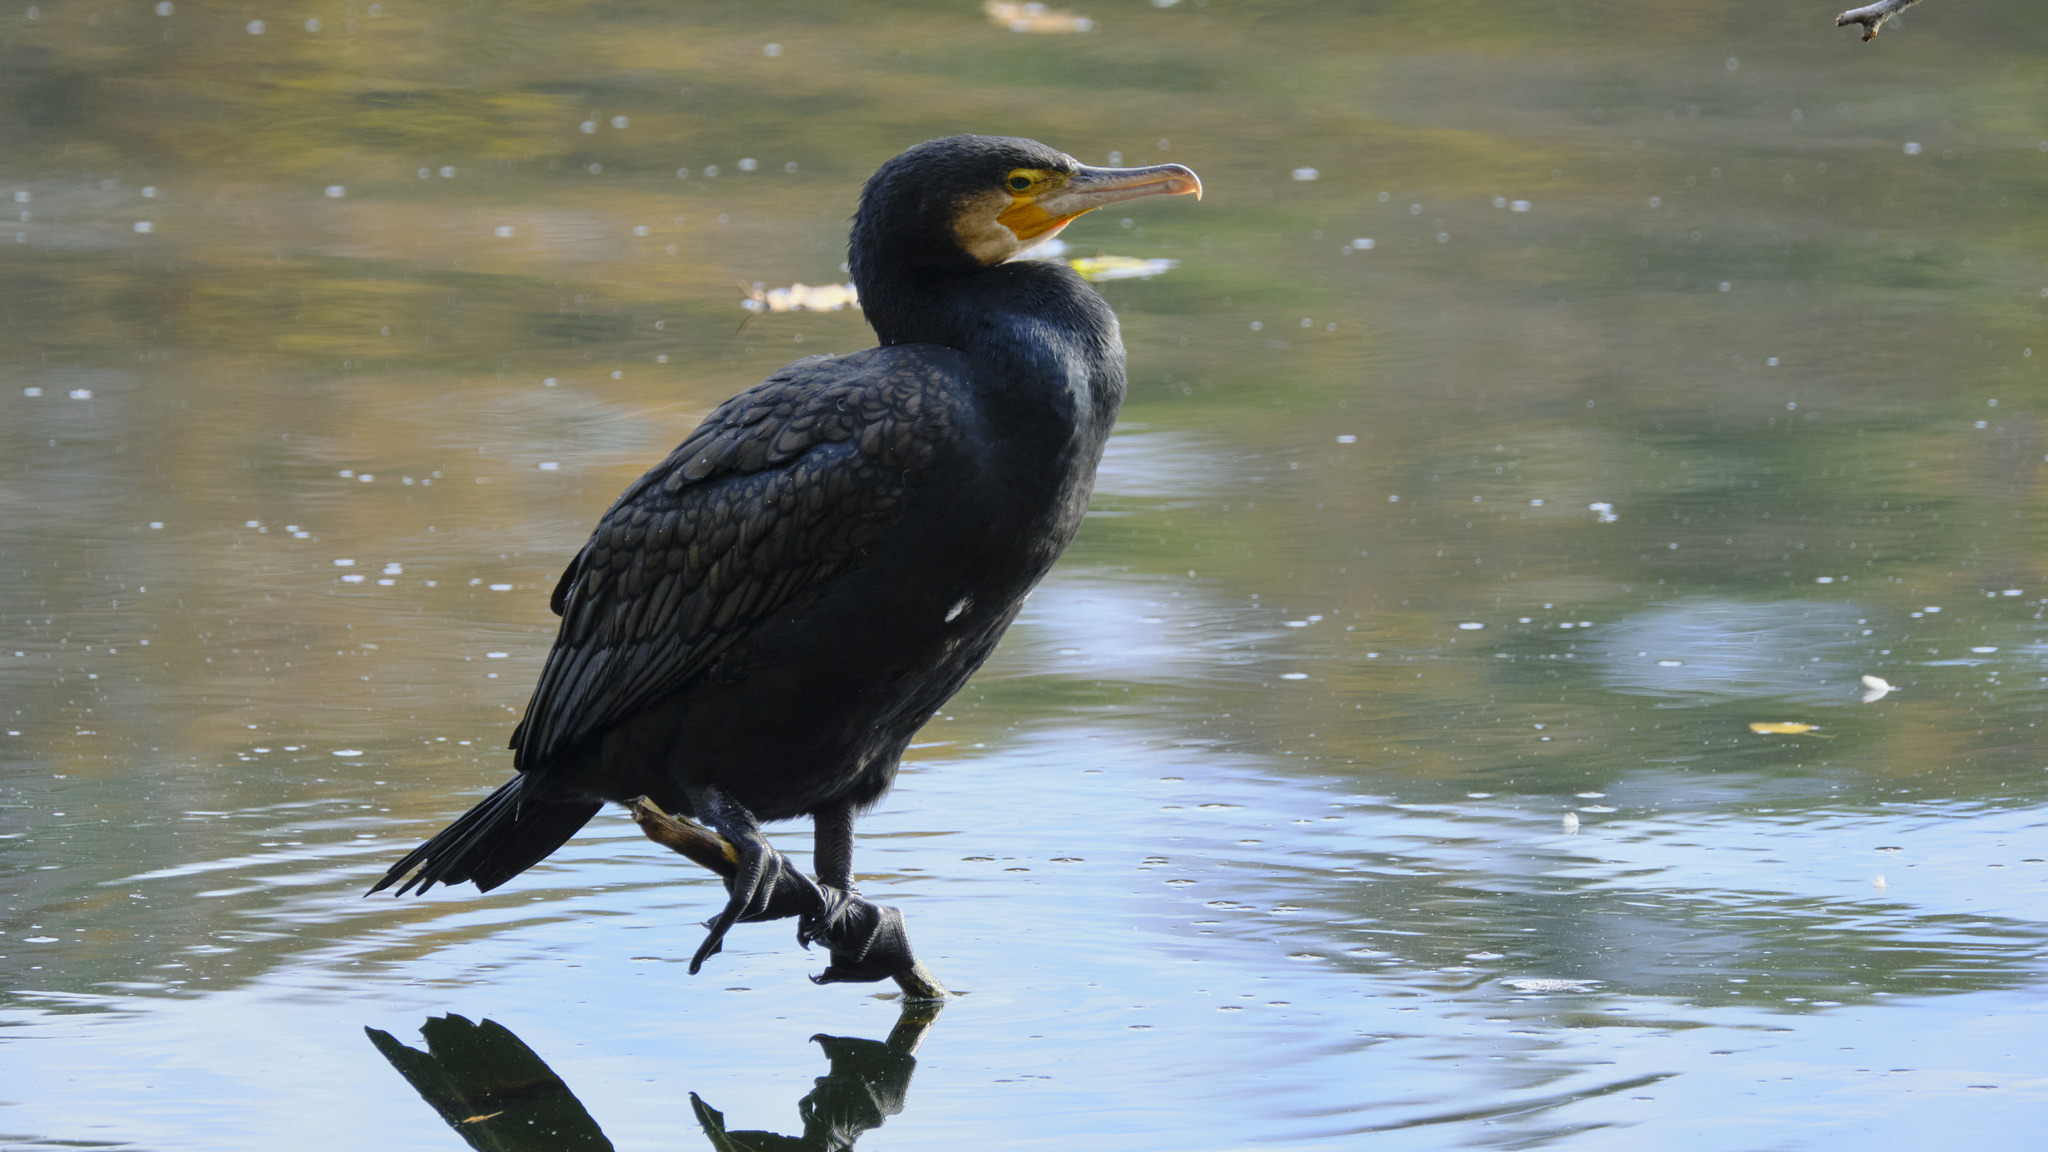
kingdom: Animalia
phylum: Chordata
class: Aves
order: Suliformes
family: Phalacrocoracidae
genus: Phalacrocorax
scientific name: Phalacrocorax carbo
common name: Great cormorant
